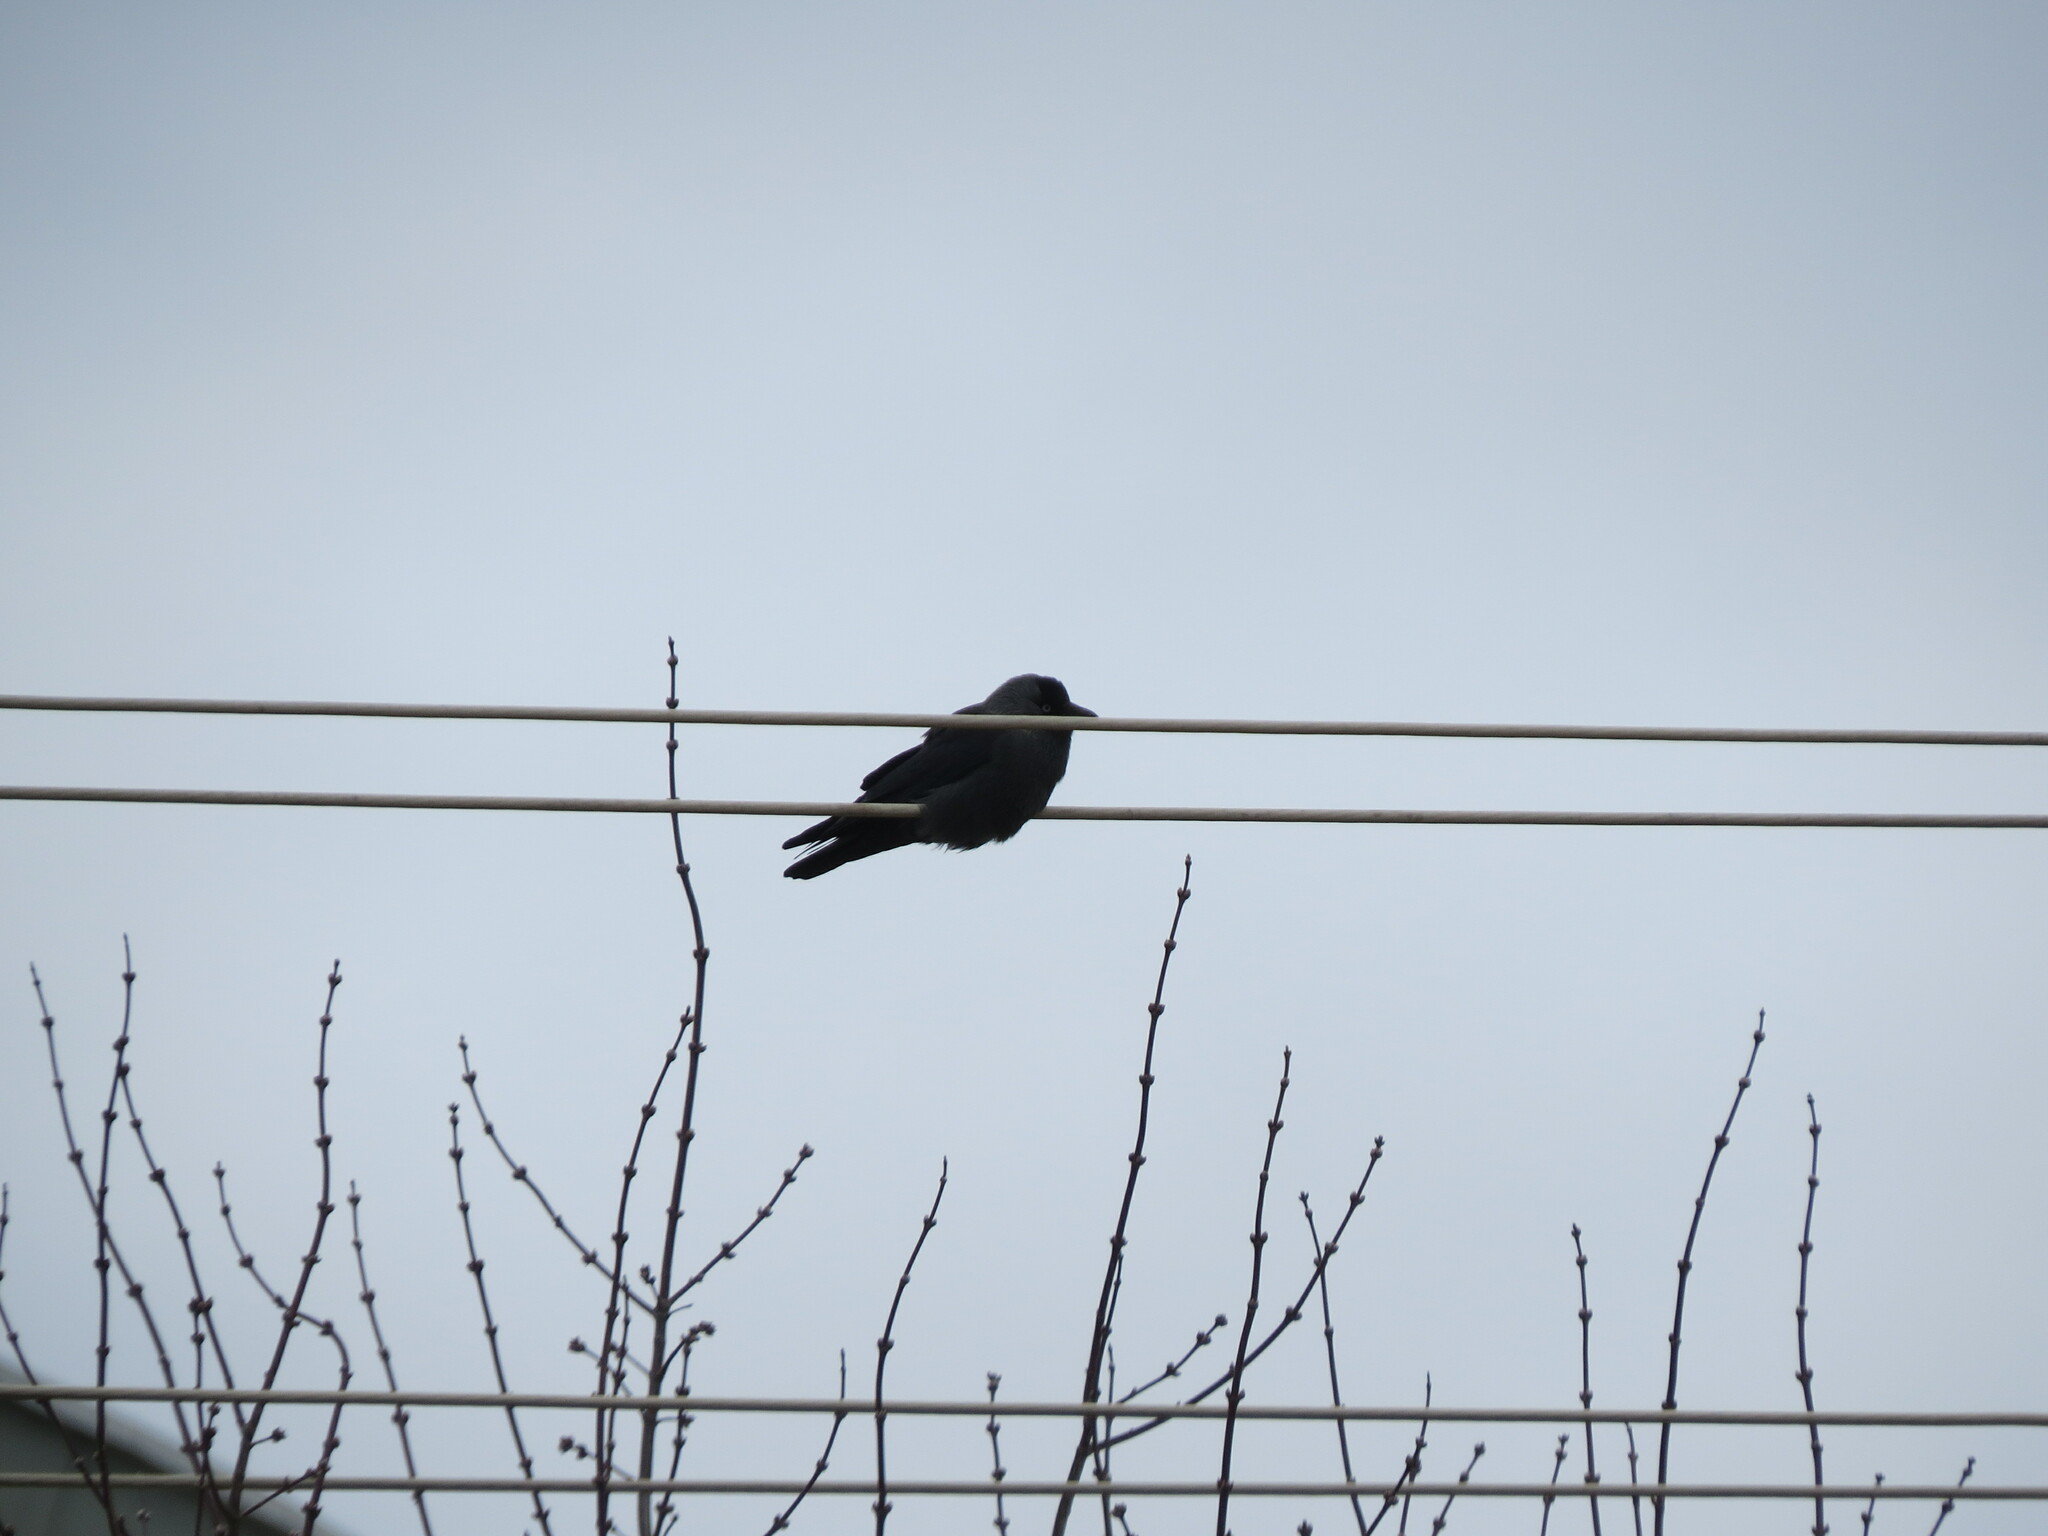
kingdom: Animalia
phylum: Chordata
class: Aves
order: Passeriformes
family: Corvidae
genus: Coloeus
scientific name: Coloeus monedula
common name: Western jackdaw
